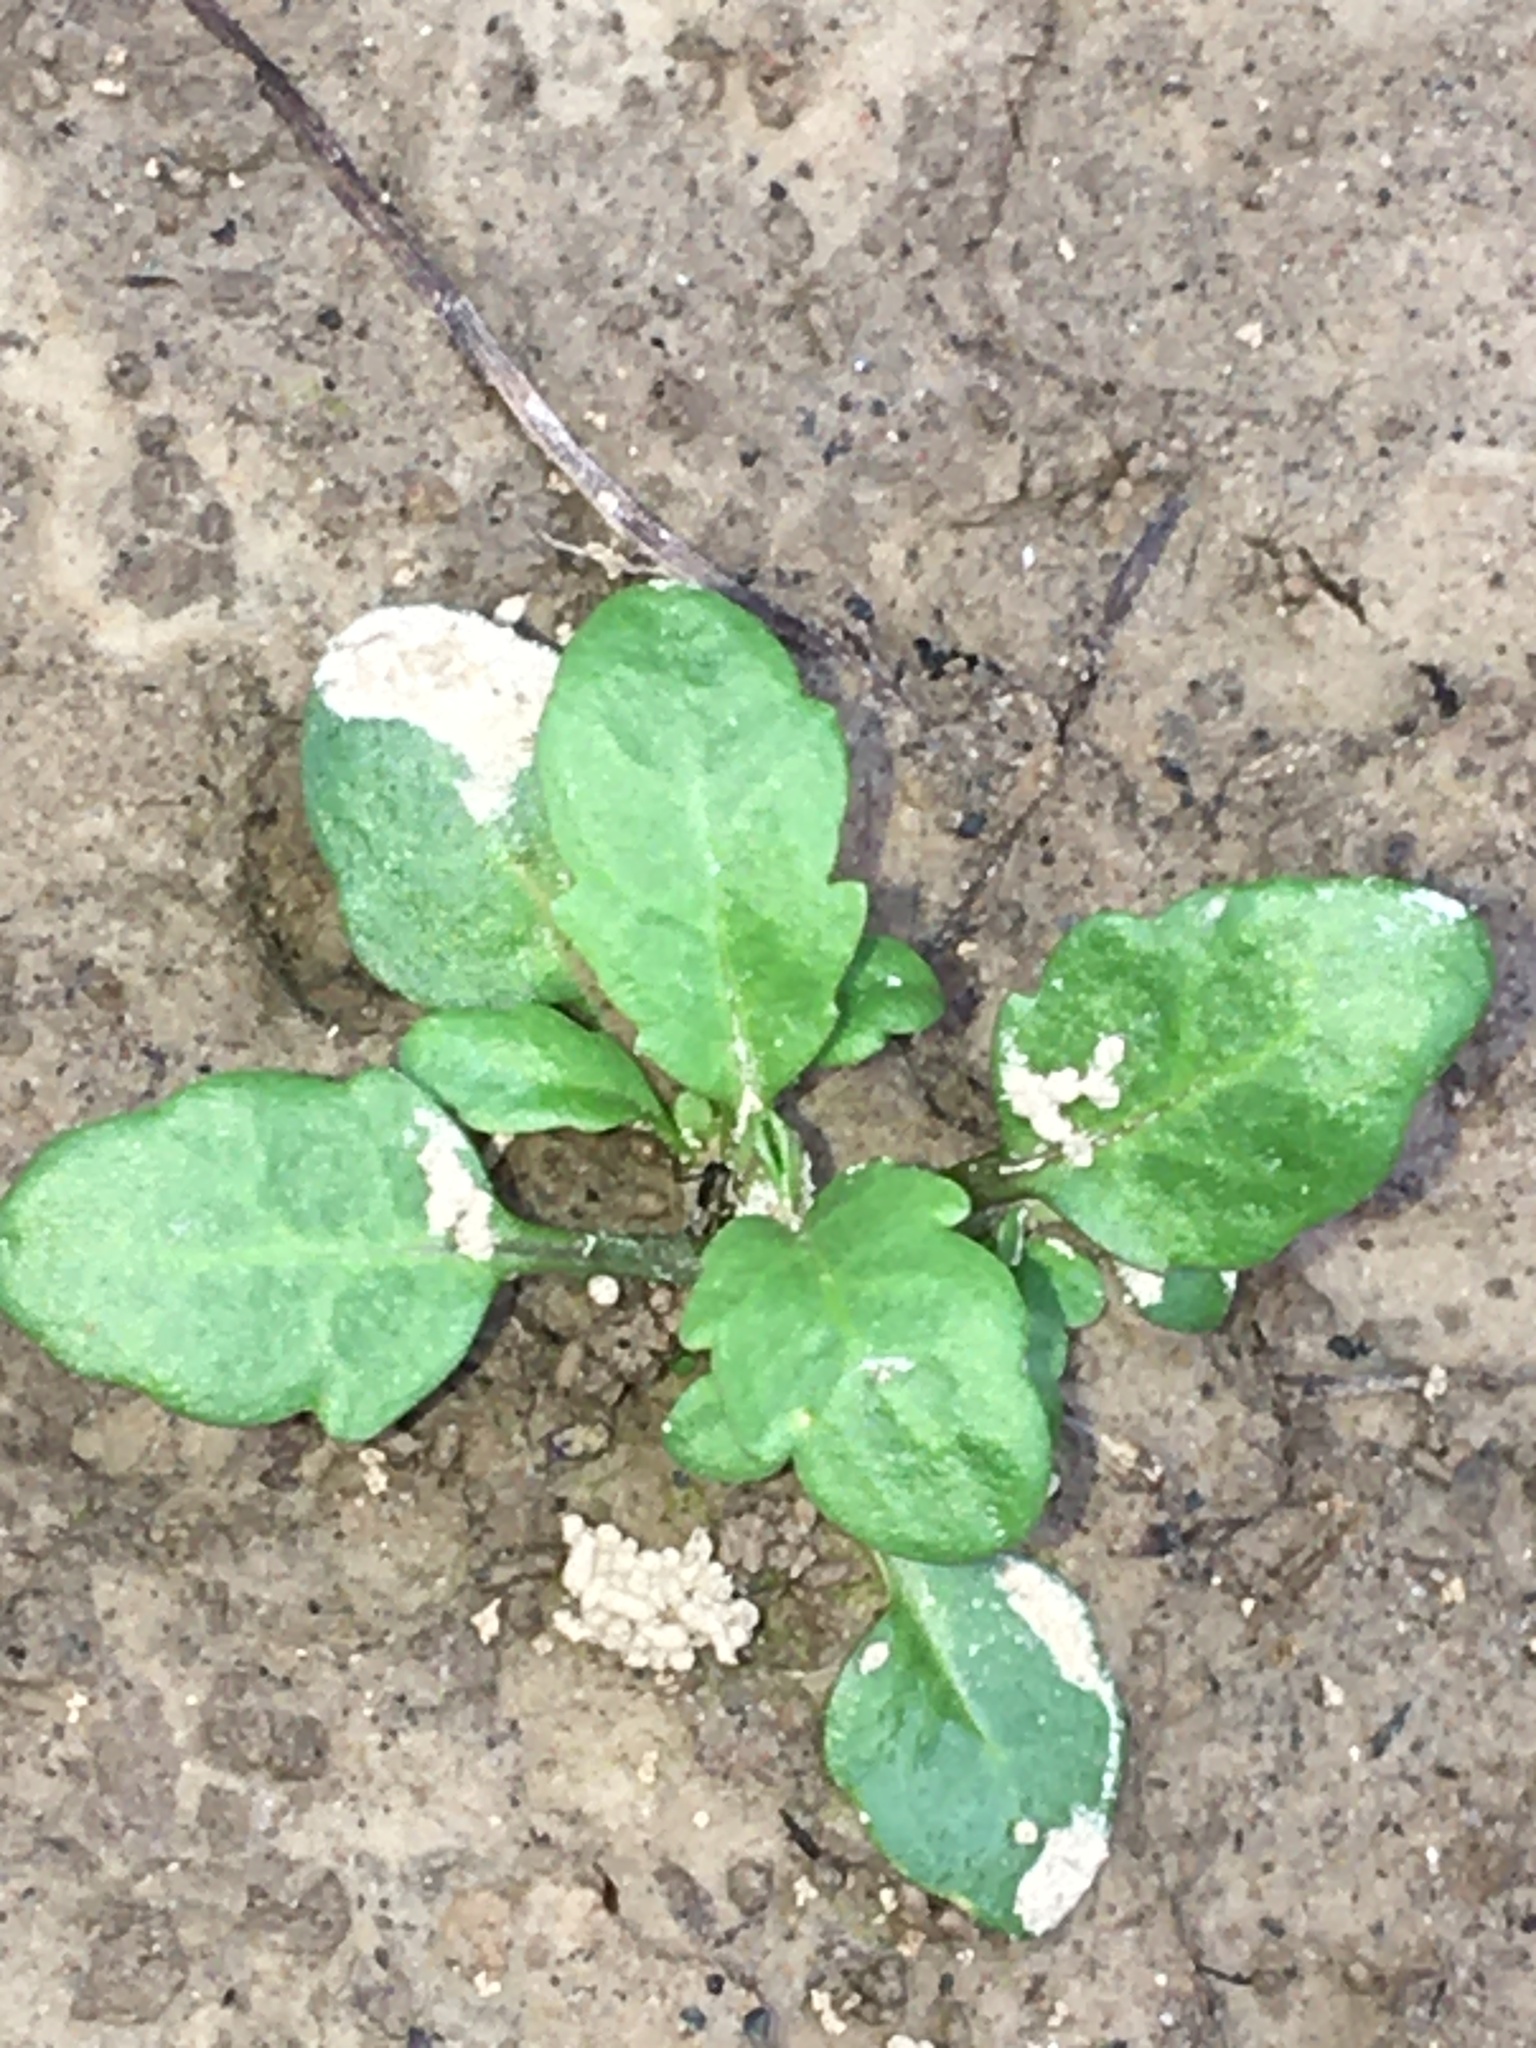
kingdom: Plantae
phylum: Tracheophyta
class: Magnoliopsida
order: Lamiales
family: Mazaceae
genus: Mazus
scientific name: Mazus pumilus
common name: Japanese mazus
